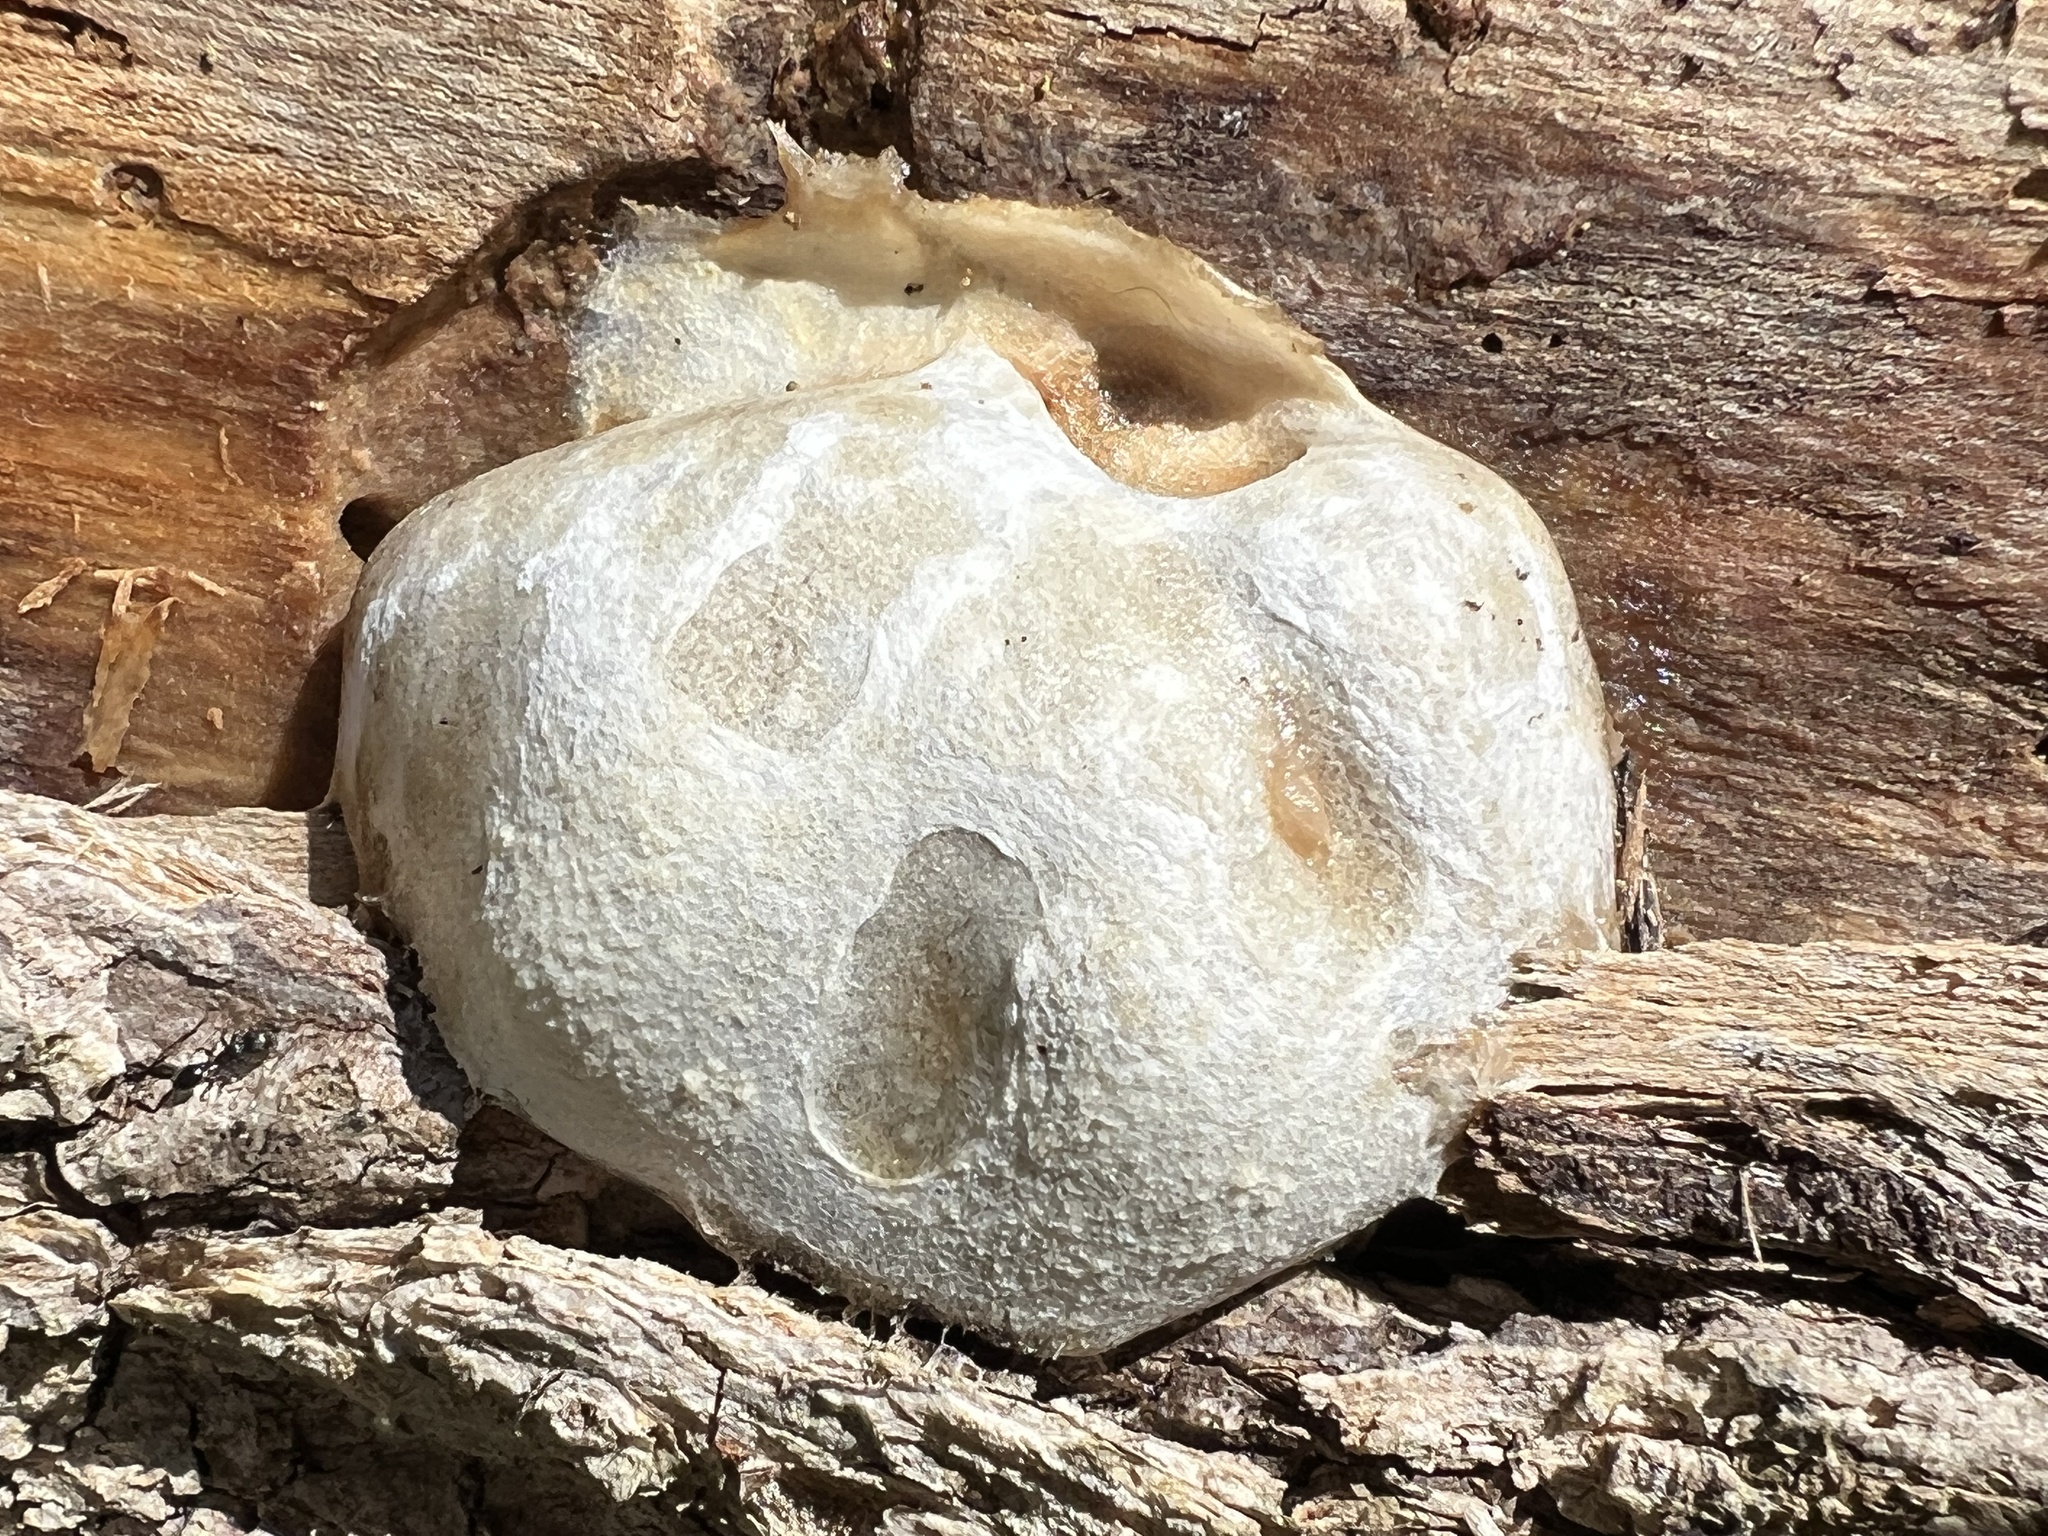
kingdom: Protozoa
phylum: Mycetozoa
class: Myxomycetes
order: Cribrariales
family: Tubiferaceae
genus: Reticularia
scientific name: Reticularia lycoperdon
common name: False puffball
